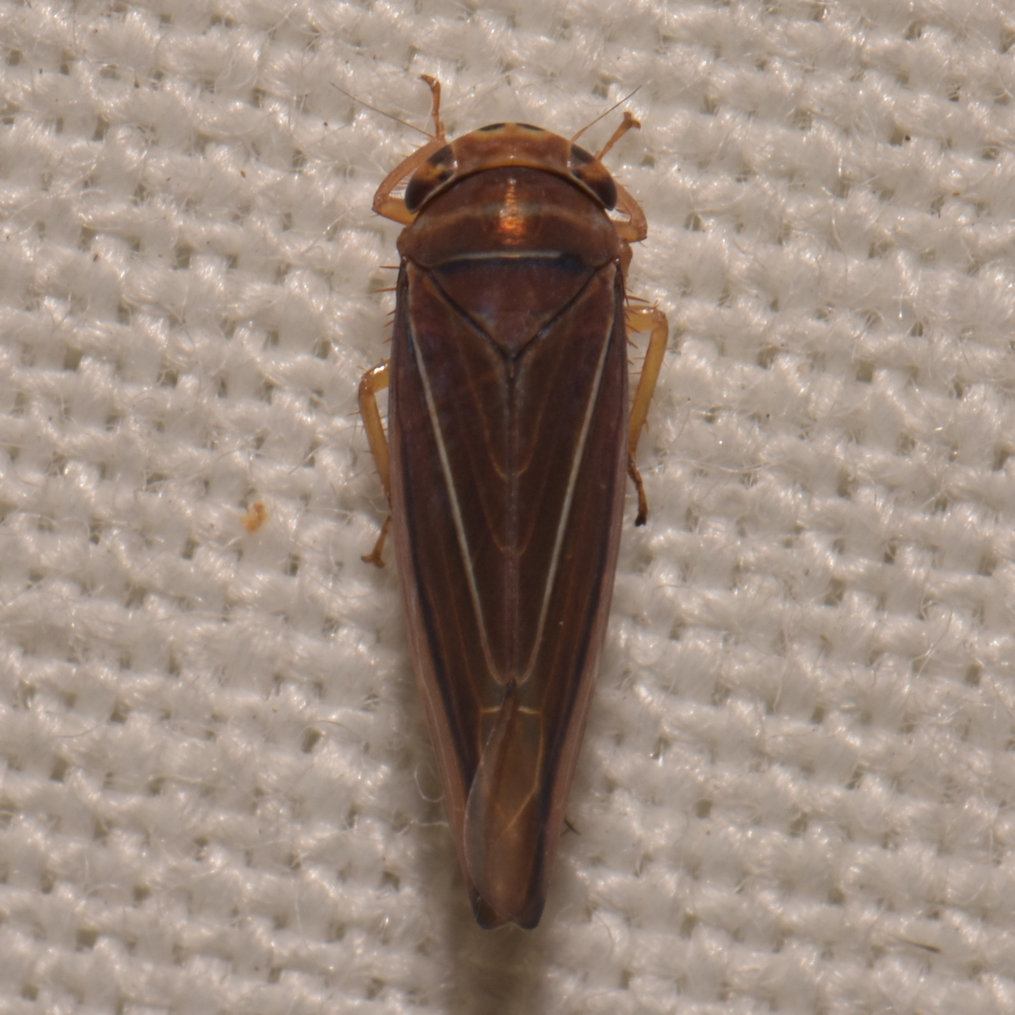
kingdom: Animalia
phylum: Arthropoda
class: Insecta
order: Hemiptera
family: Cicadellidae
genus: Idiodonus
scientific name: Idiodonus kennicotti
